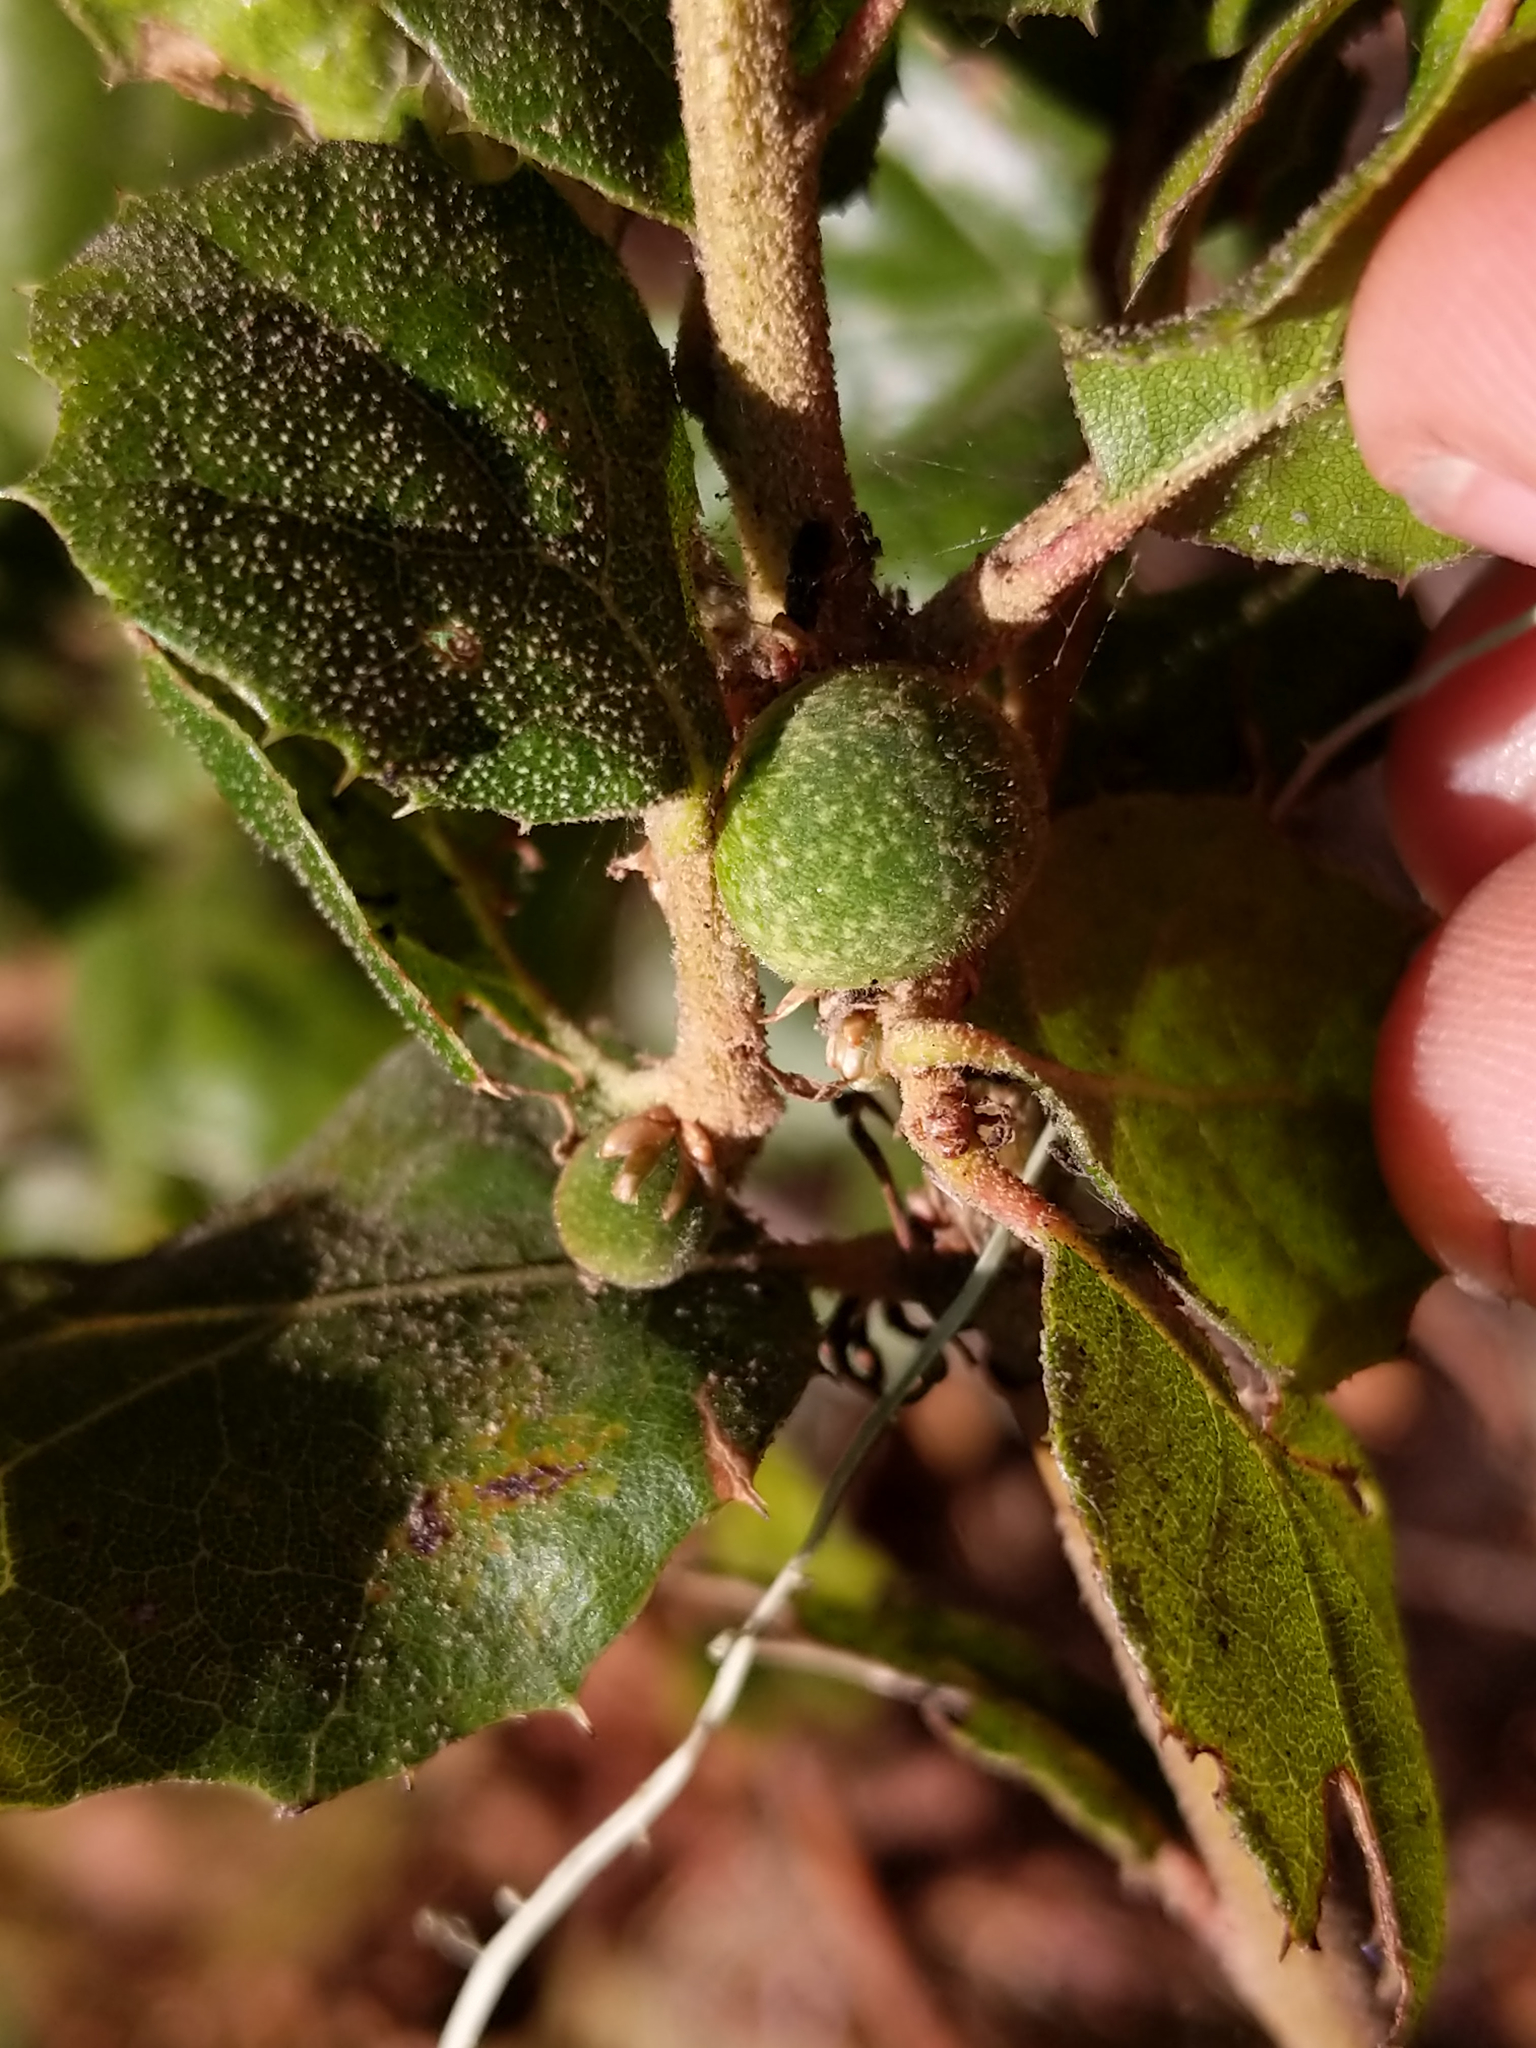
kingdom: Animalia
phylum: Arthropoda
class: Insecta
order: Hymenoptera
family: Cynipidae
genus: Callirhytis
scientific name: Callirhytis
